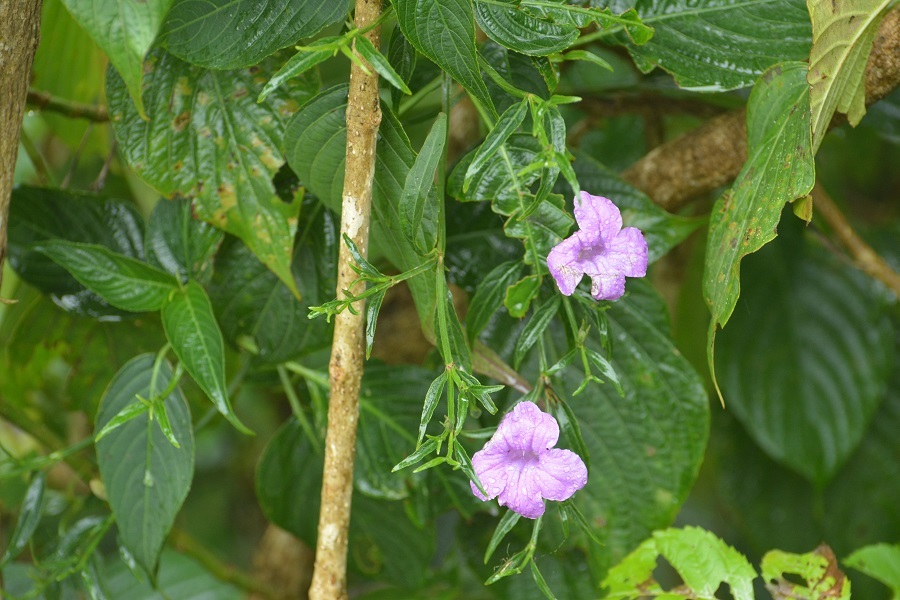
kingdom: Plantae
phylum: Tracheophyta
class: Magnoliopsida
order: Lamiales
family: Acanthaceae
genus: Ruellia
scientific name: Ruellia breedlovei
